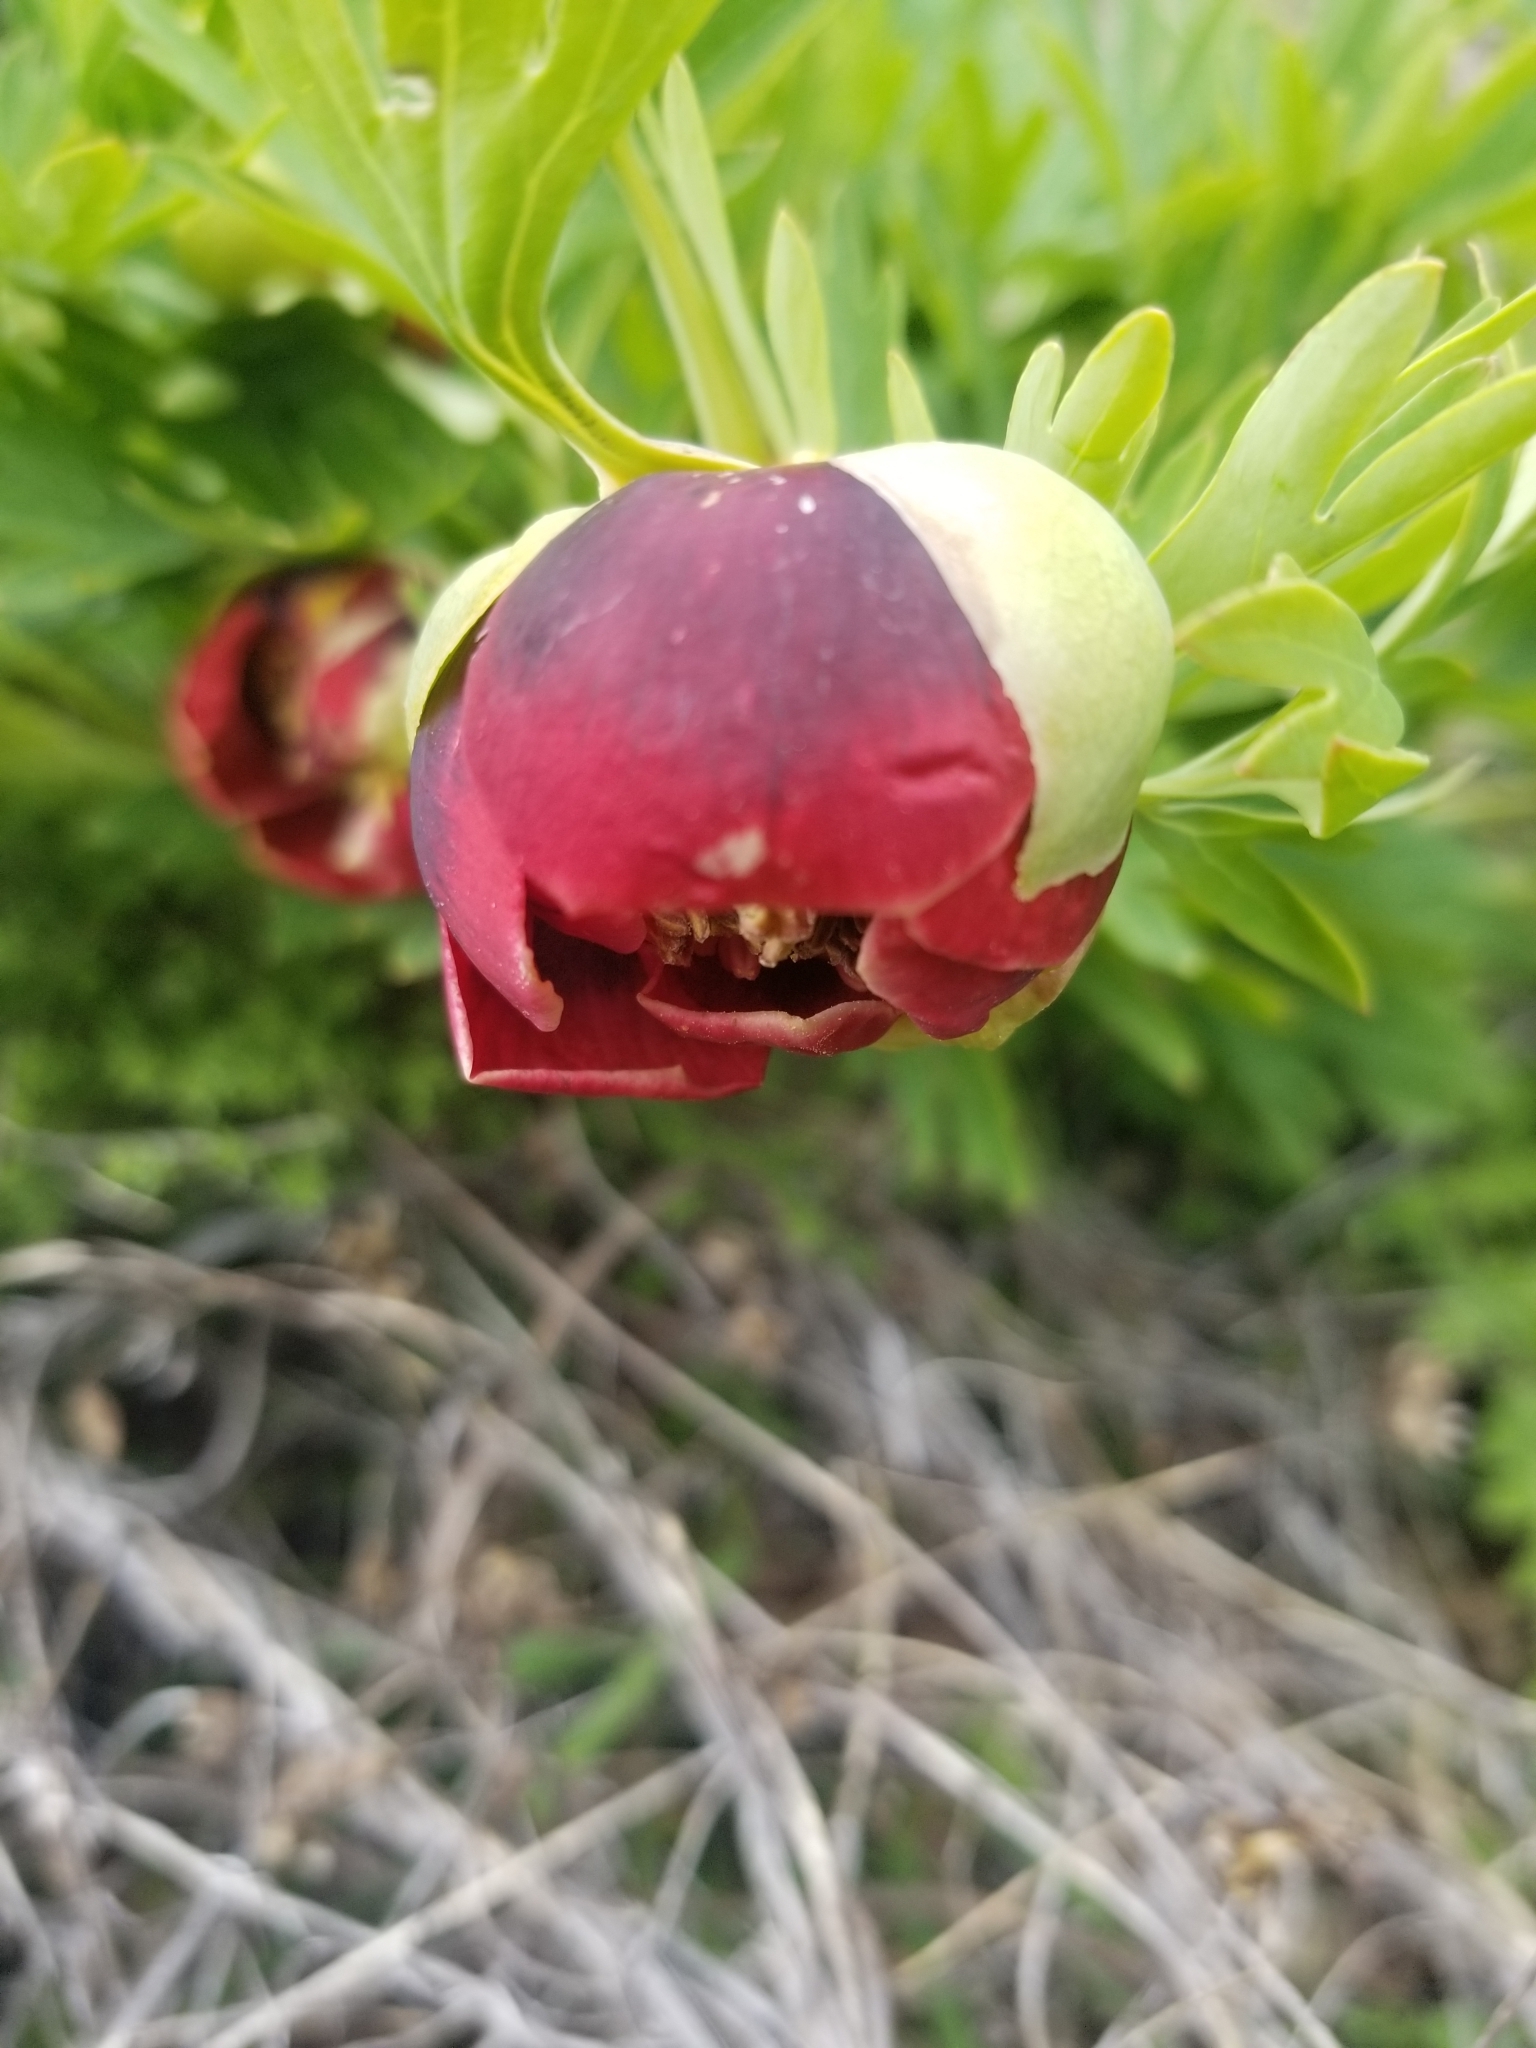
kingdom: Plantae
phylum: Tracheophyta
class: Magnoliopsida
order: Saxifragales
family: Paeoniaceae
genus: Paeonia
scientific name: Paeonia californica
